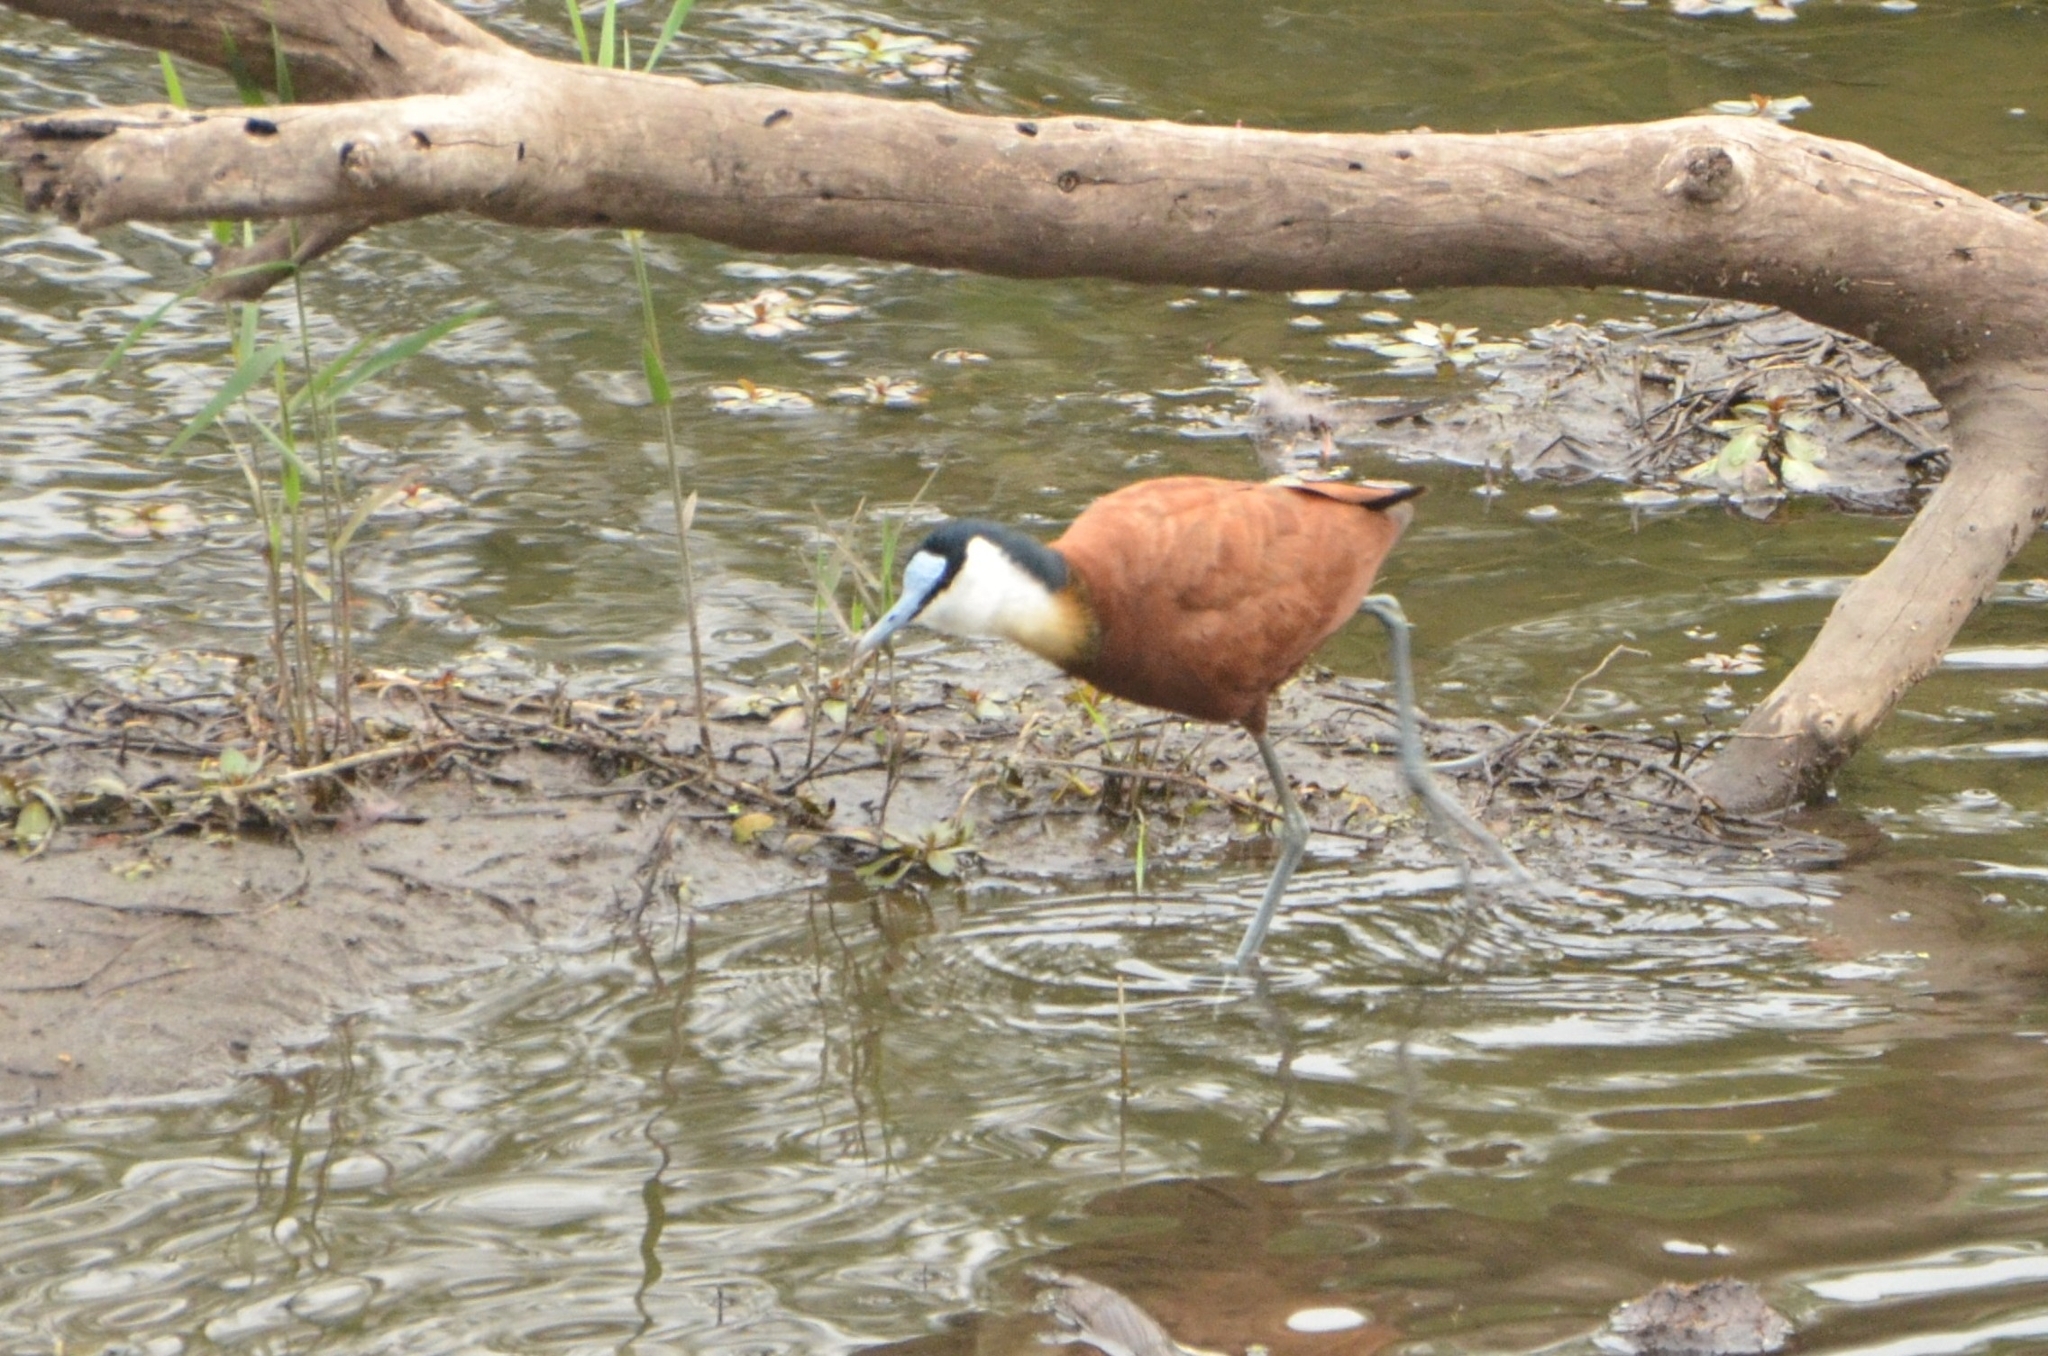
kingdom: Animalia
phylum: Chordata
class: Aves
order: Charadriiformes
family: Jacanidae
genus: Actophilornis
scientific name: Actophilornis africanus
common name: African jacana
